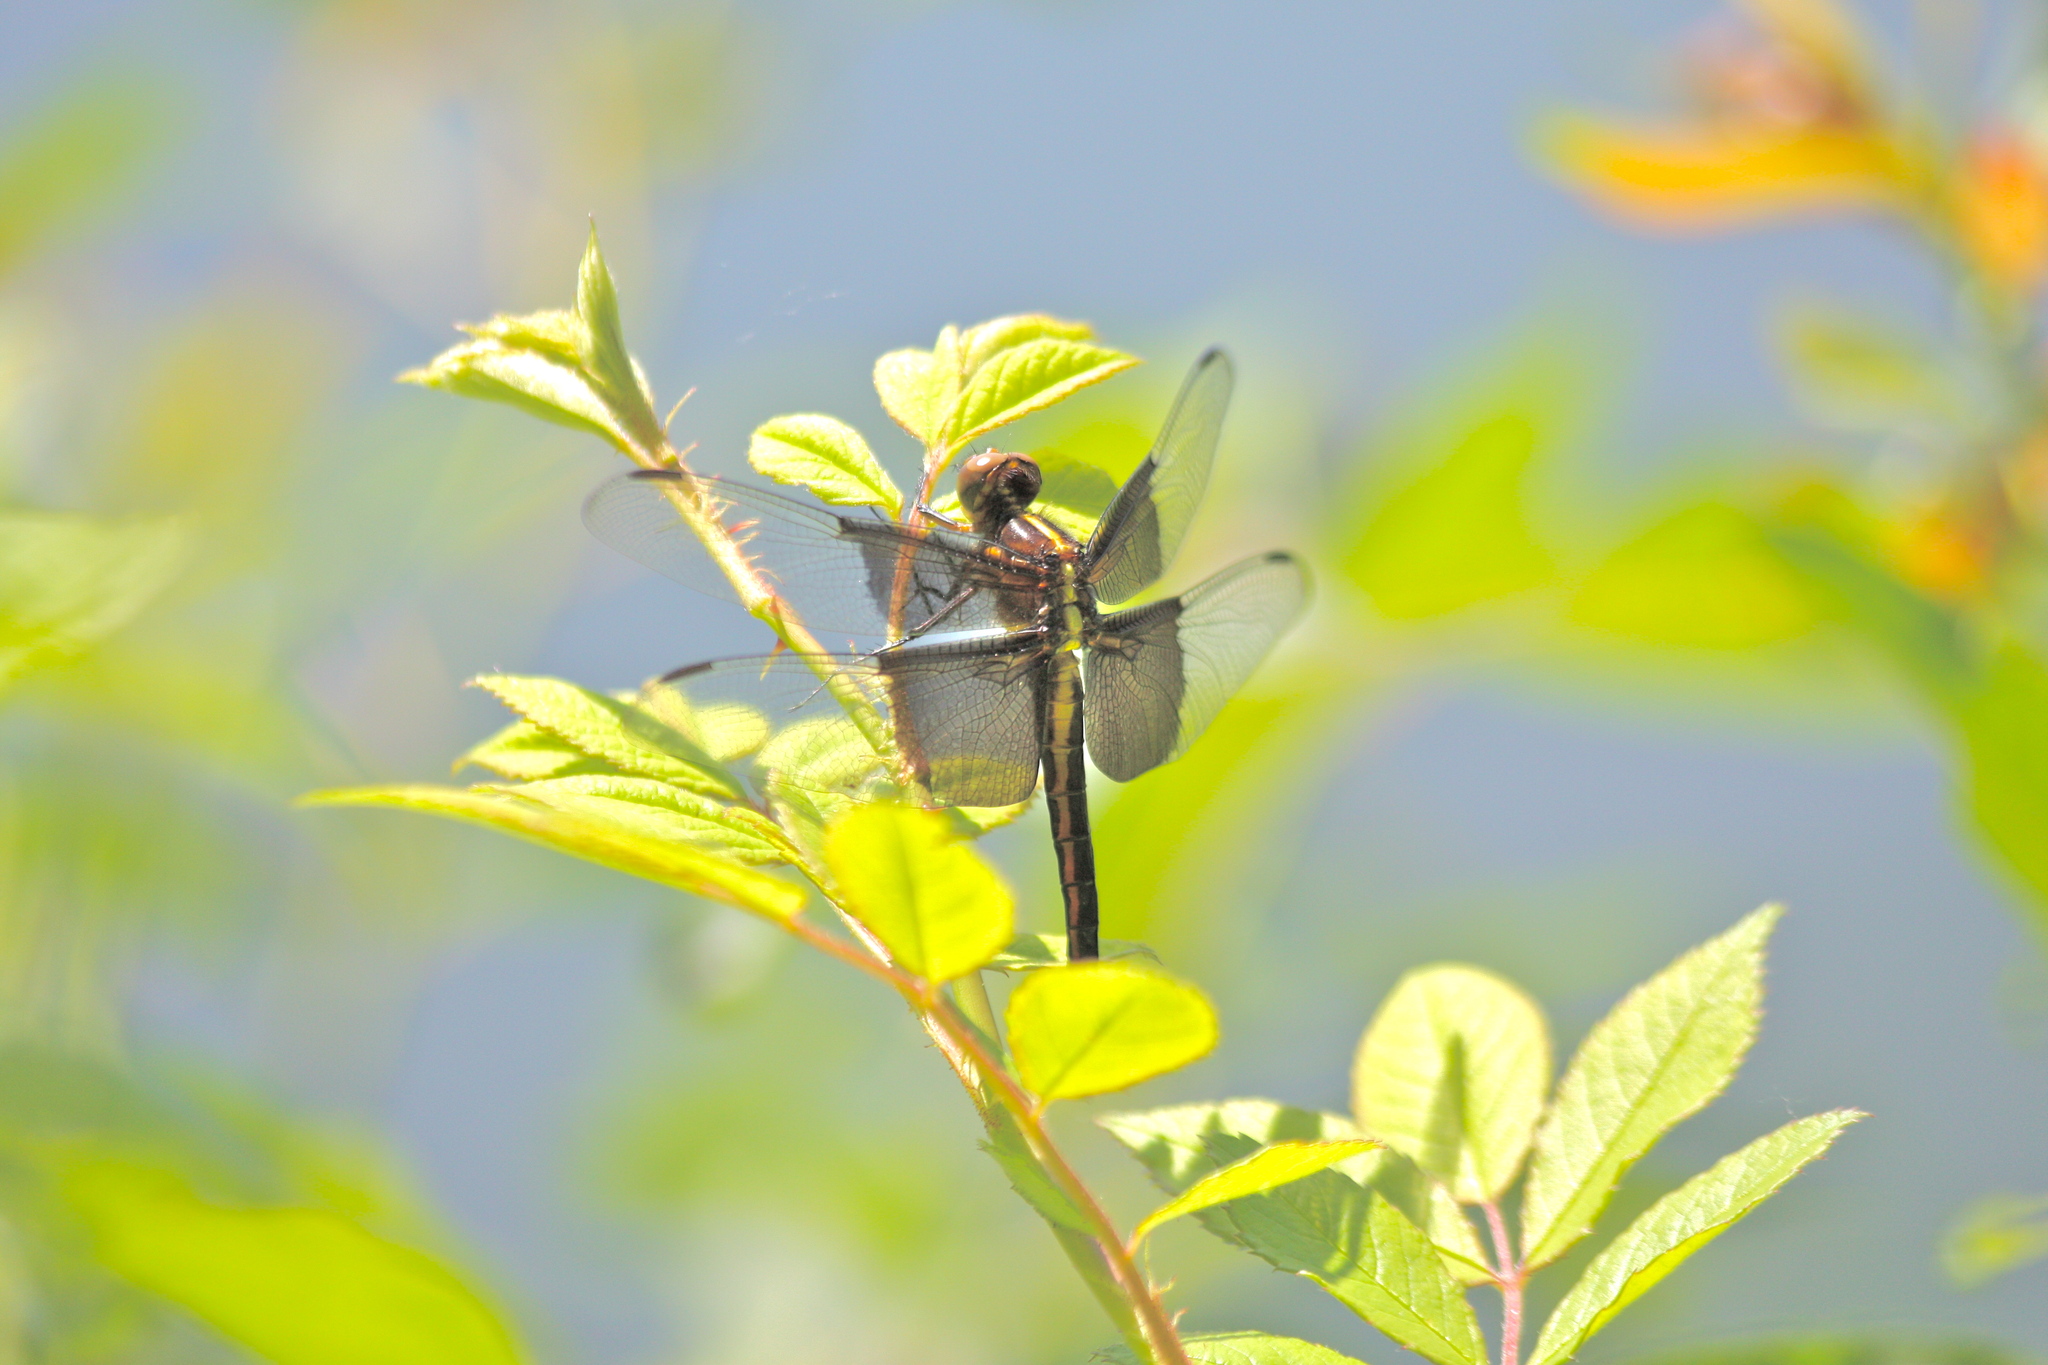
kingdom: Animalia
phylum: Arthropoda
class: Insecta
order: Odonata
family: Libellulidae
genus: Libellula
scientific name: Libellula luctuosa
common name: Widow skimmer
